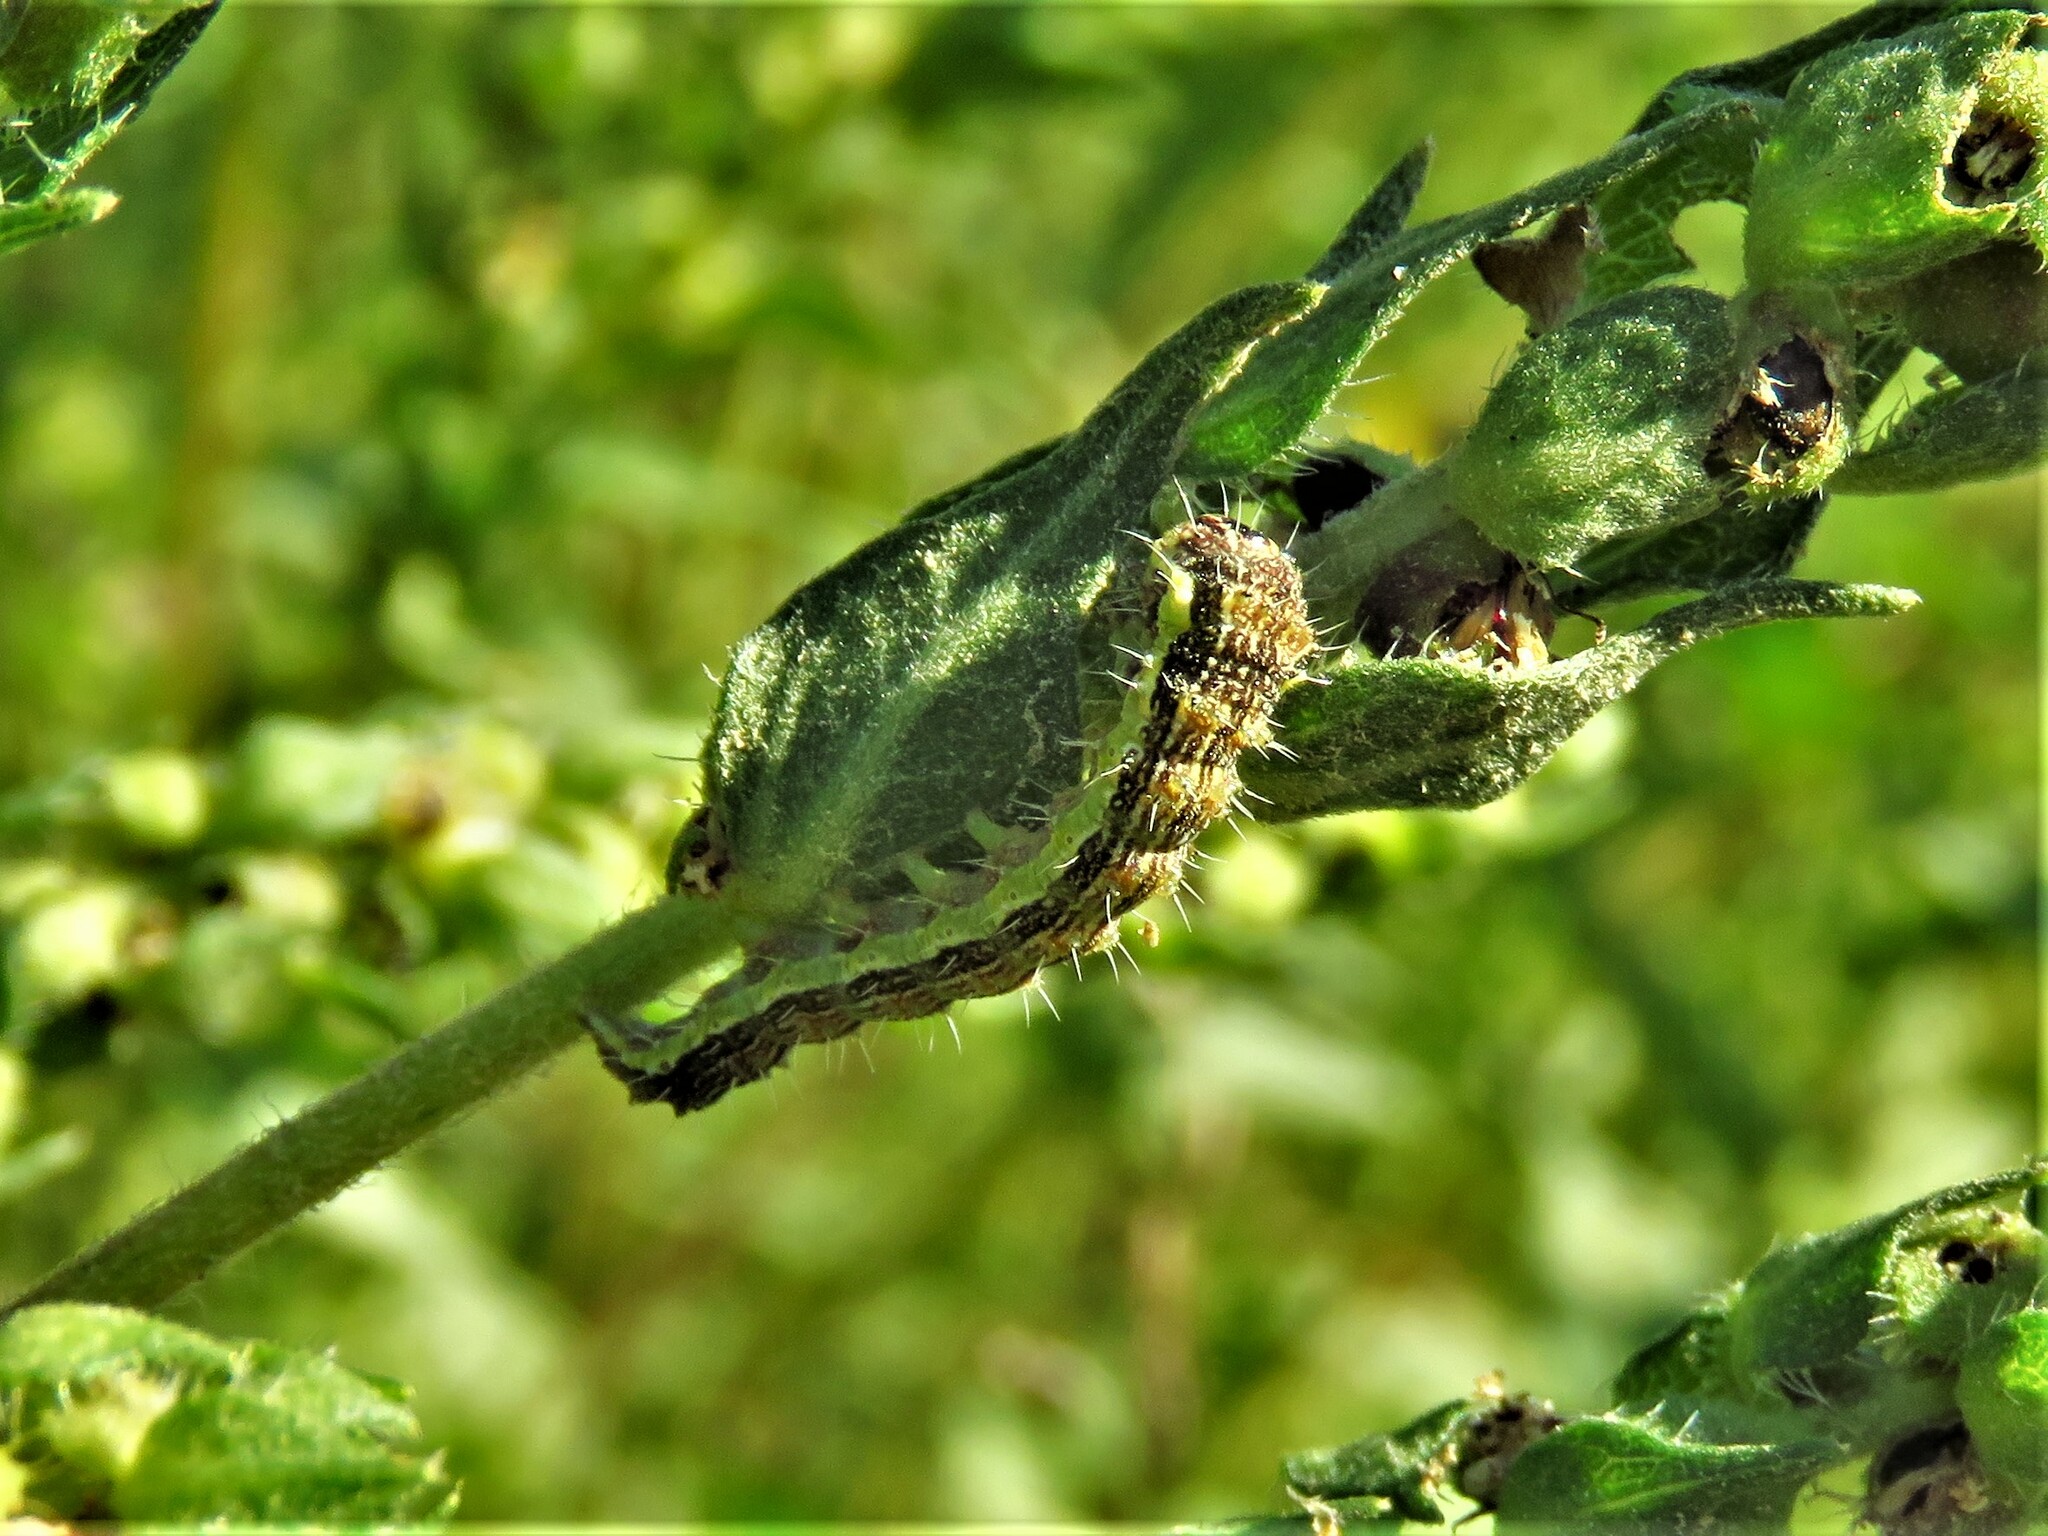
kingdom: Animalia
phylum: Arthropoda
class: Insecta
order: Lepidoptera
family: Noctuidae
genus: Schinia
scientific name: Schinia gracilenta
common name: Slender flower moth
